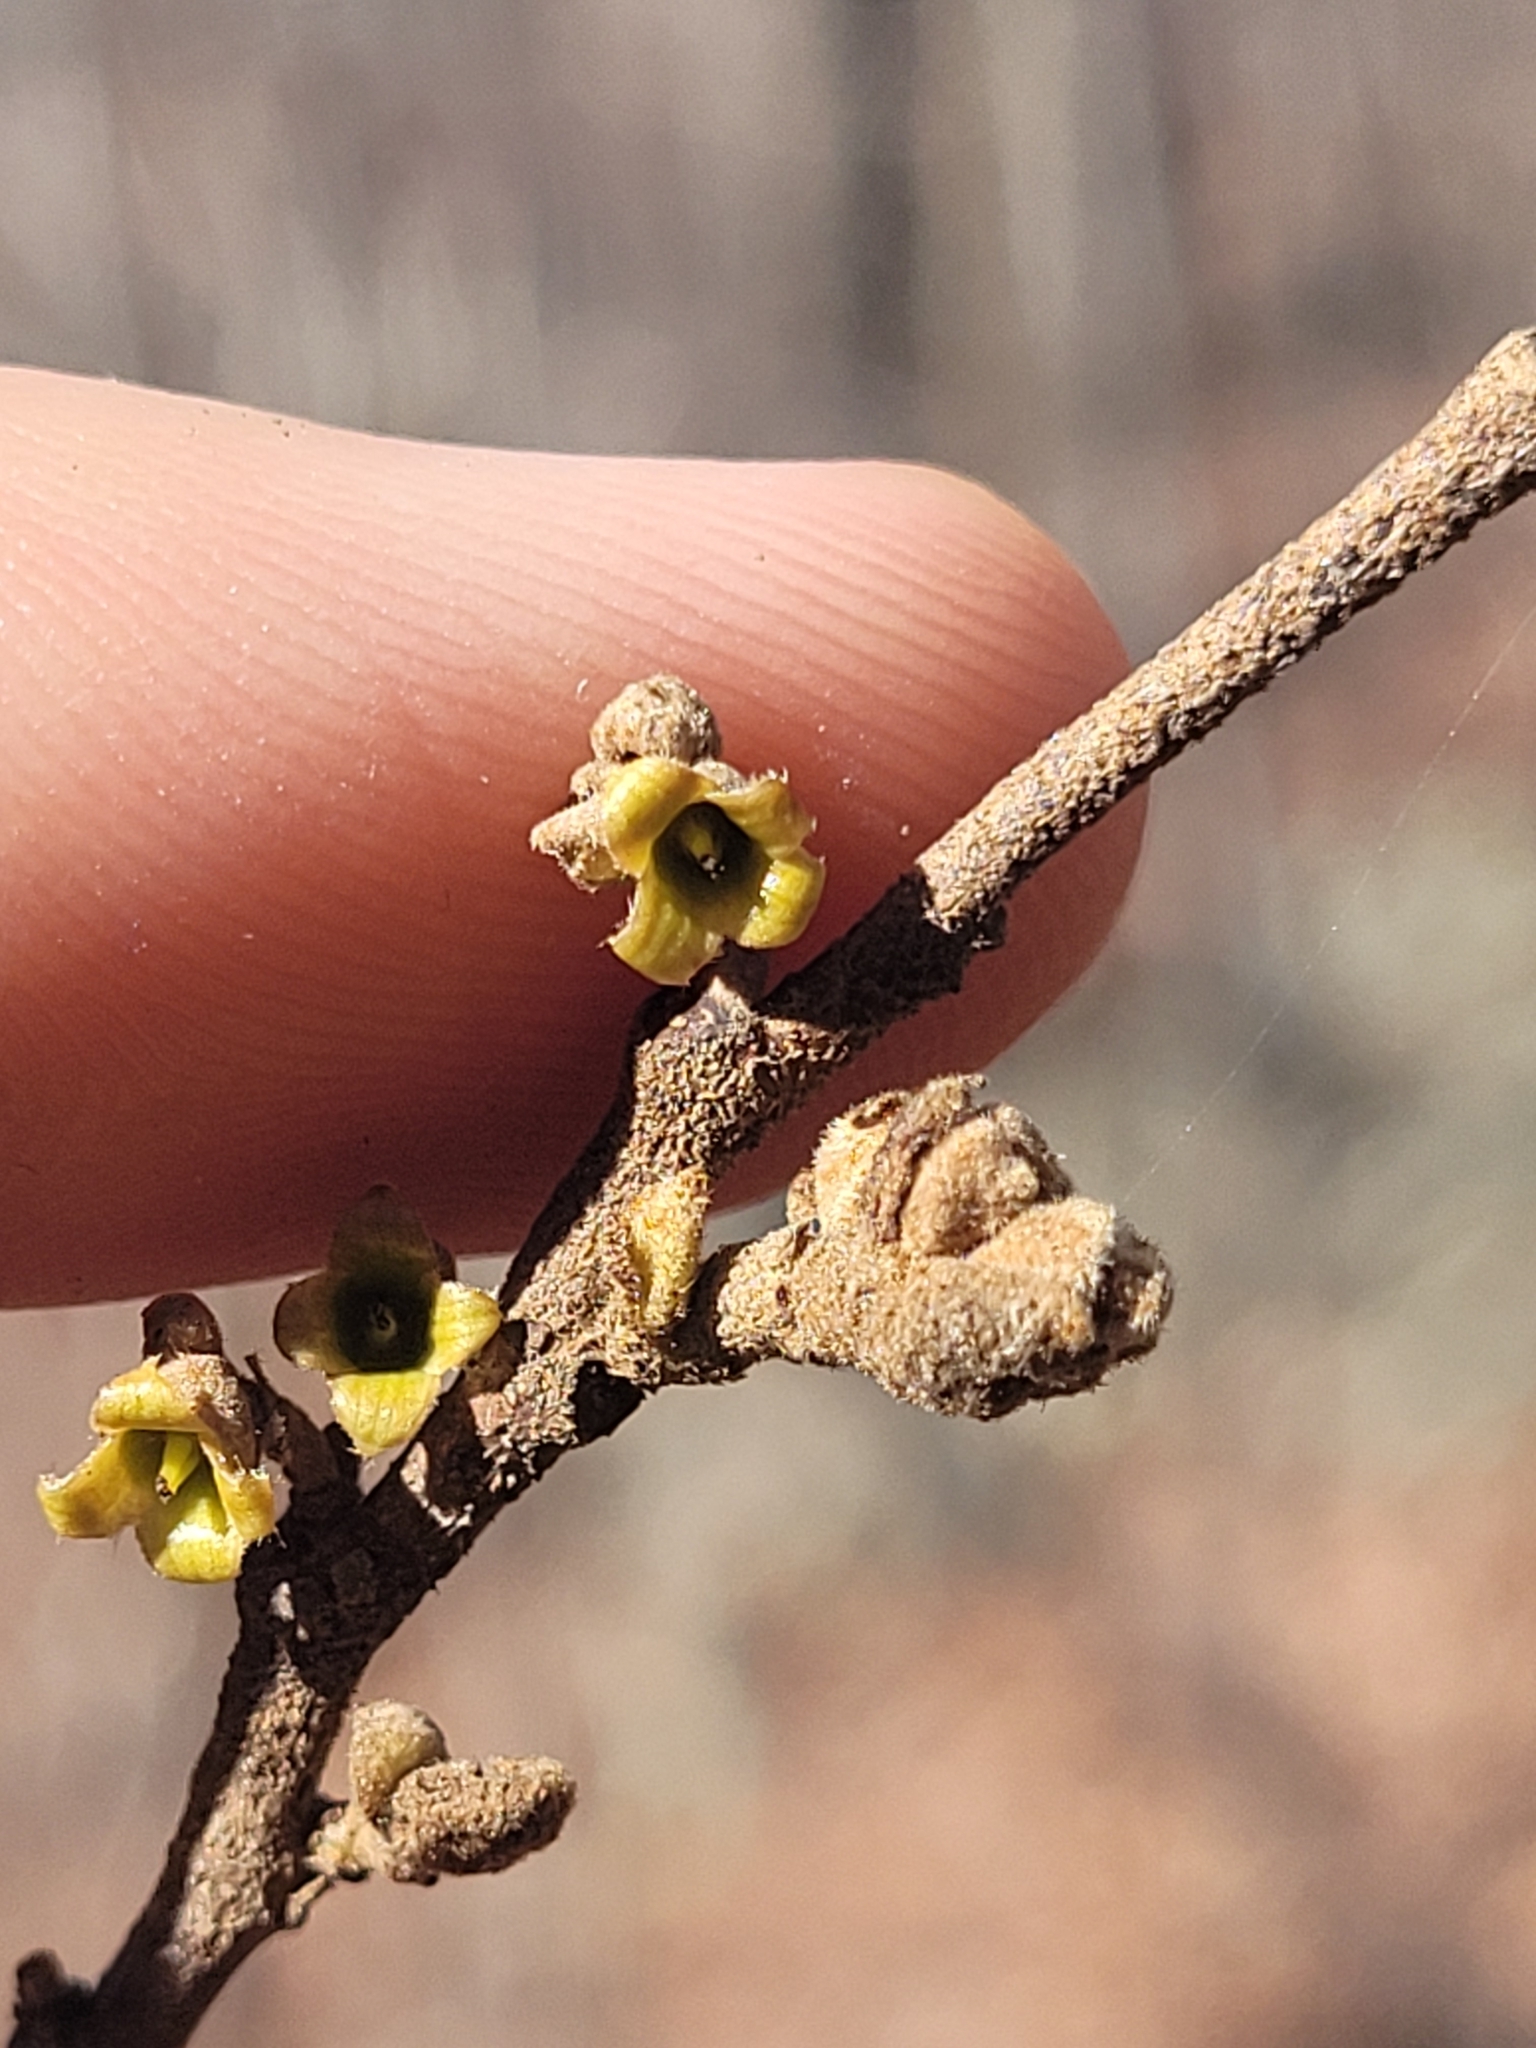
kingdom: Plantae
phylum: Tracheophyta
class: Magnoliopsida
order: Saxifragales
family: Hamamelidaceae
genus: Hamamelis
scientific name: Hamamelis virginiana
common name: Witch-hazel
